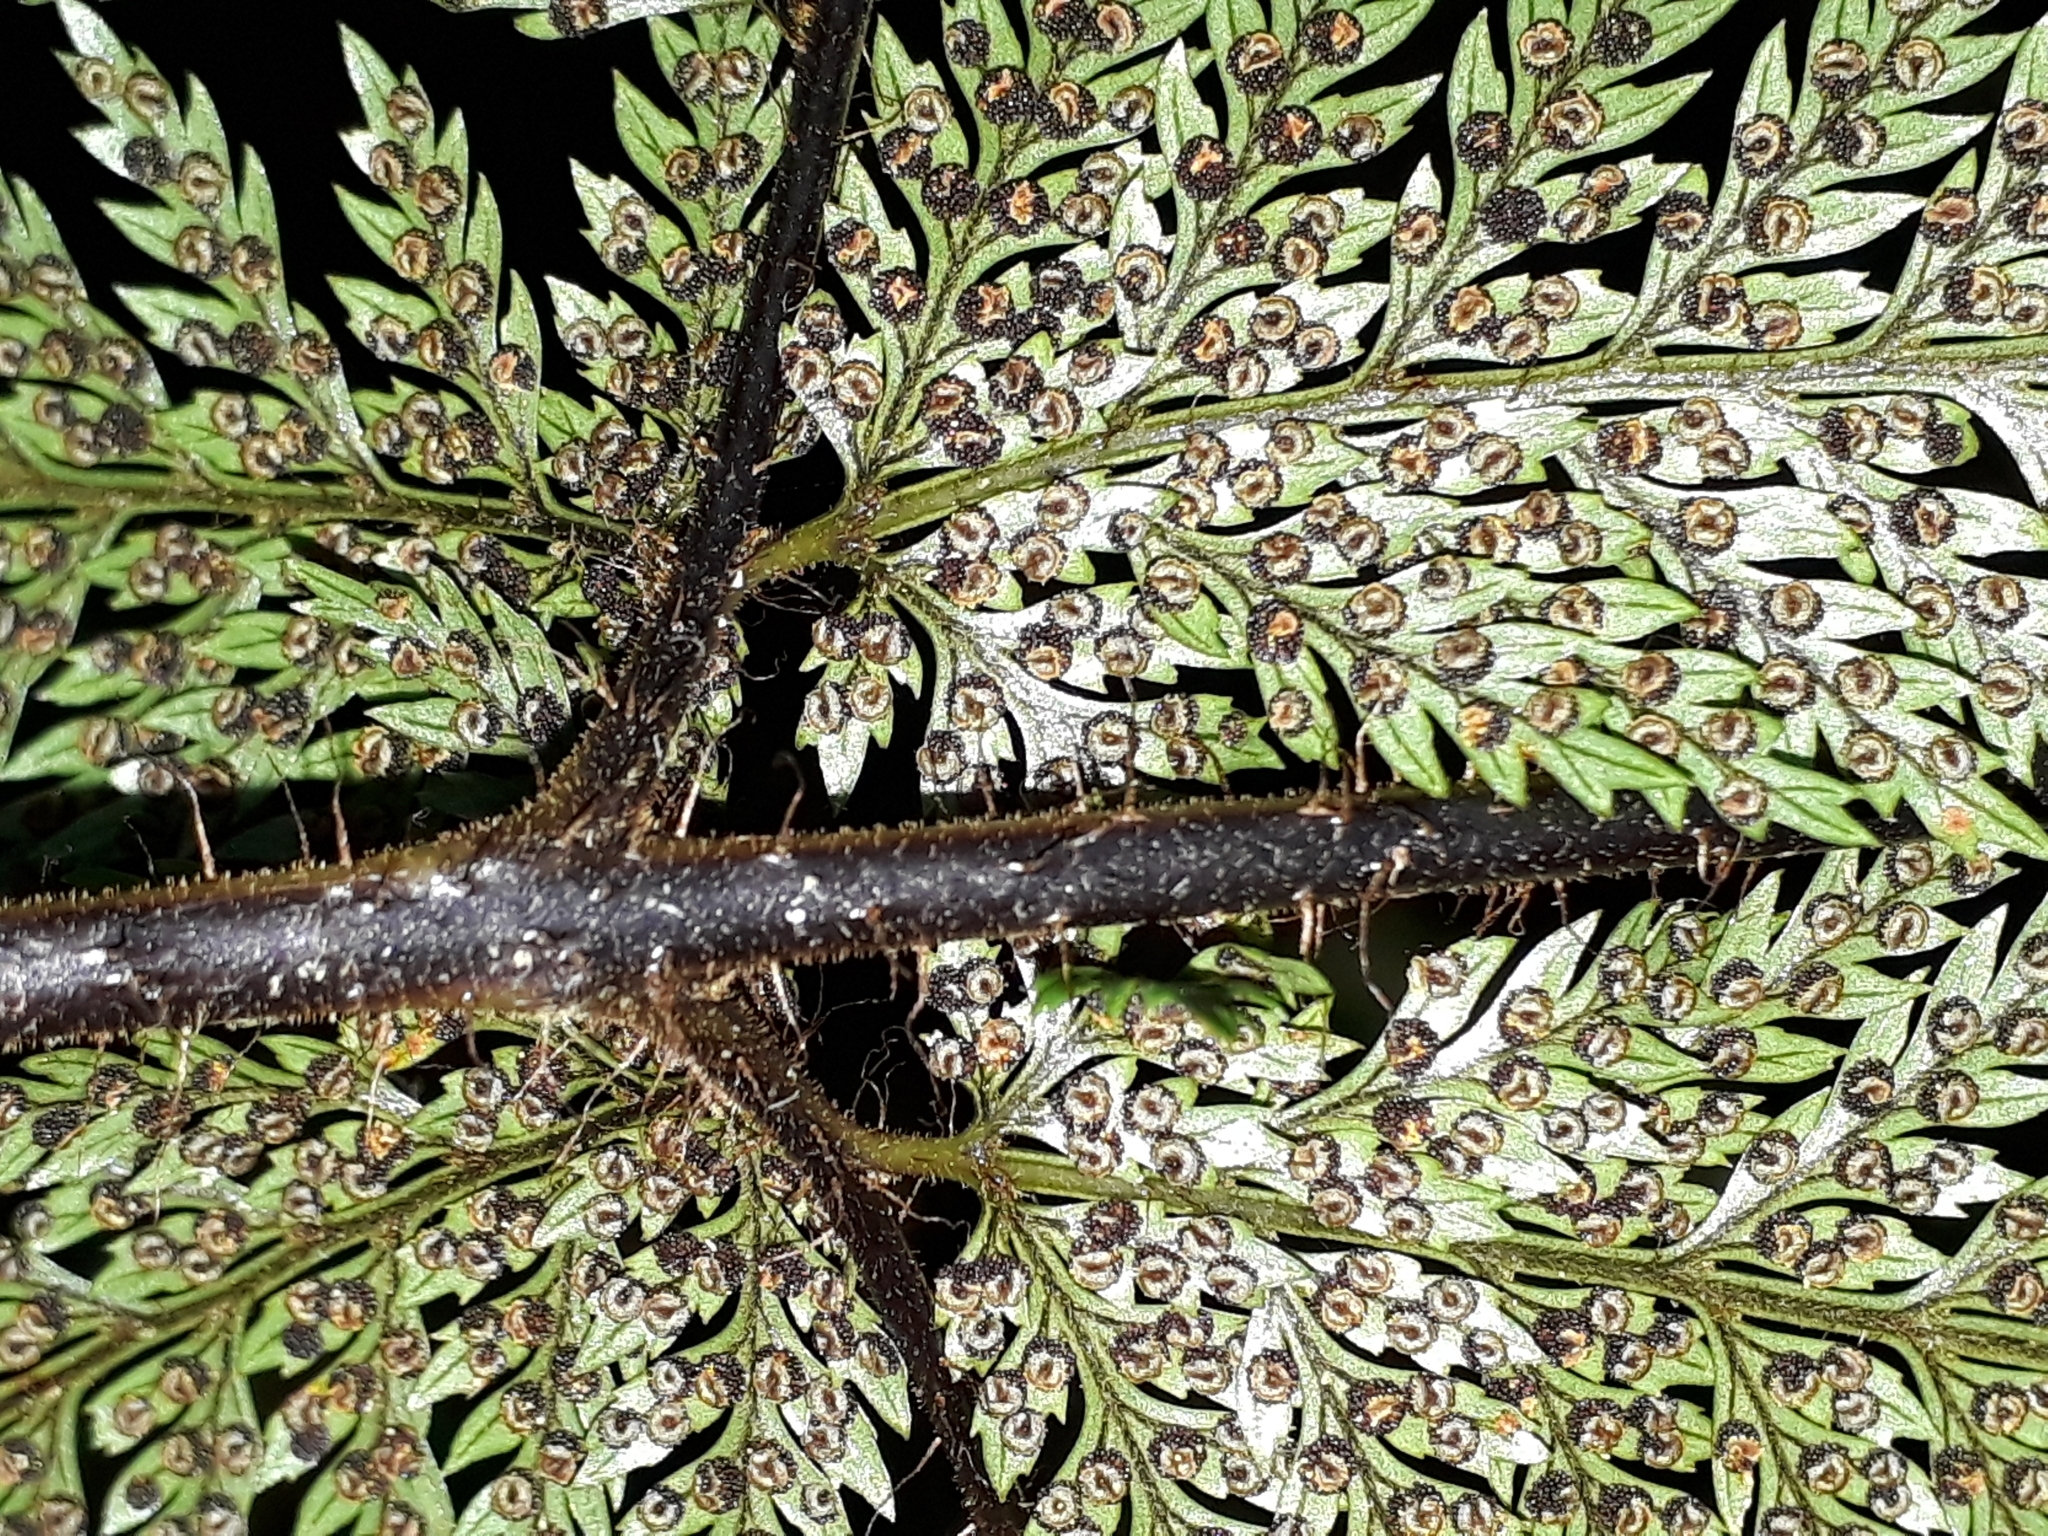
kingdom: Plantae
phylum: Tracheophyta
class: Polypodiopsida
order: Polypodiales
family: Dryopteridaceae
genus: Lastreopsis
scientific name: Lastreopsis hispida
